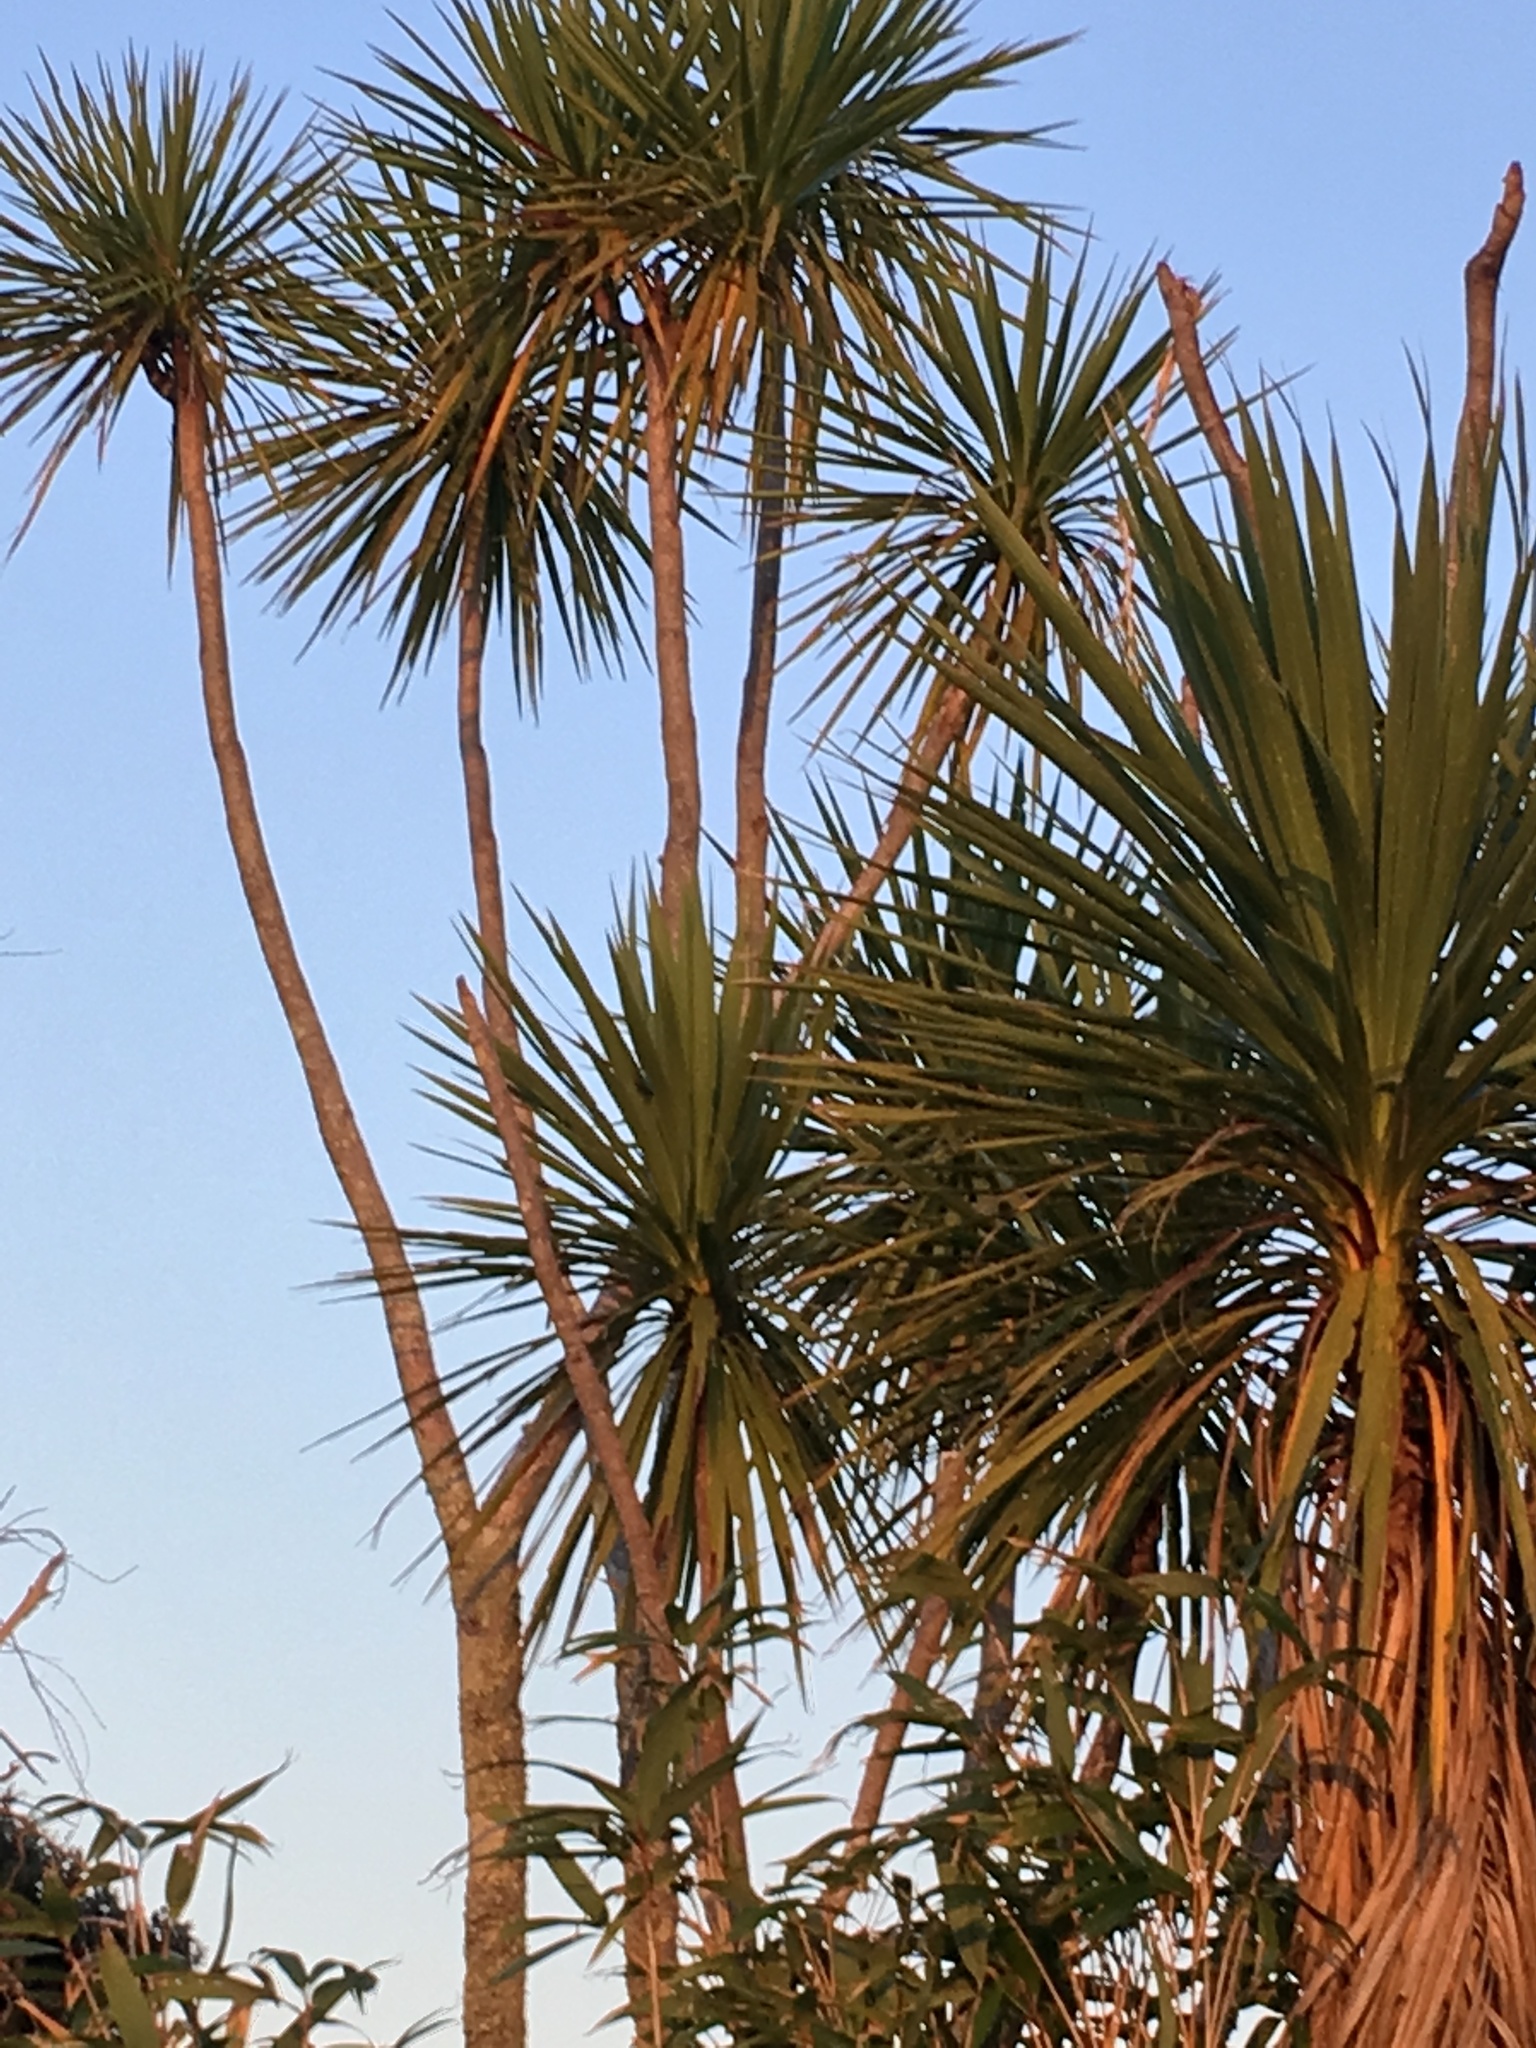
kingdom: Plantae
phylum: Tracheophyta
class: Liliopsida
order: Asparagales
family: Asparagaceae
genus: Cordyline
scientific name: Cordyline australis
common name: Cabbage-palm
